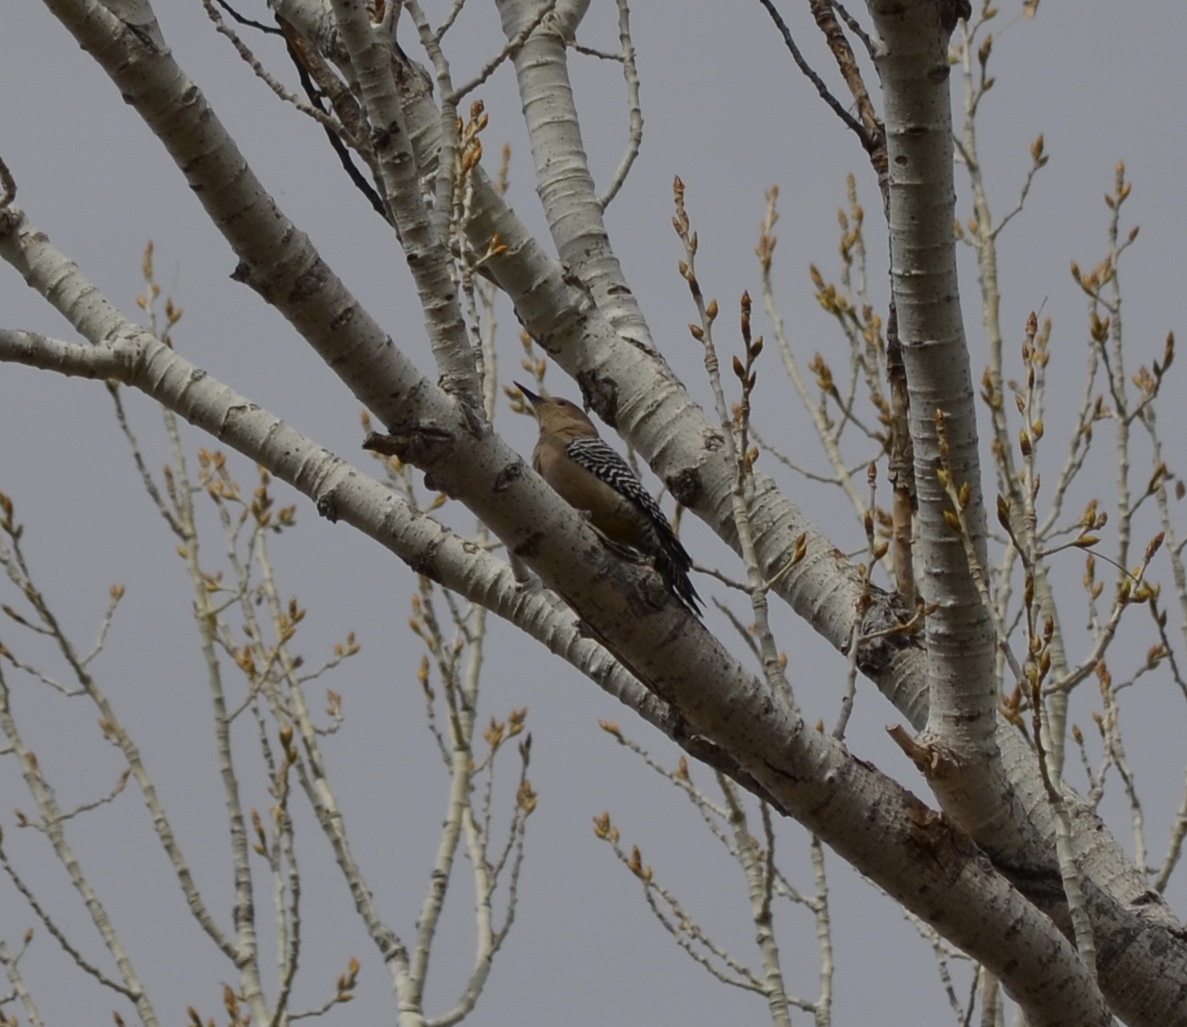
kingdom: Animalia
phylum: Chordata
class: Aves
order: Piciformes
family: Picidae
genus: Melanerpes
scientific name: Melanerpes uropygialis
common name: Gila woodpecker
